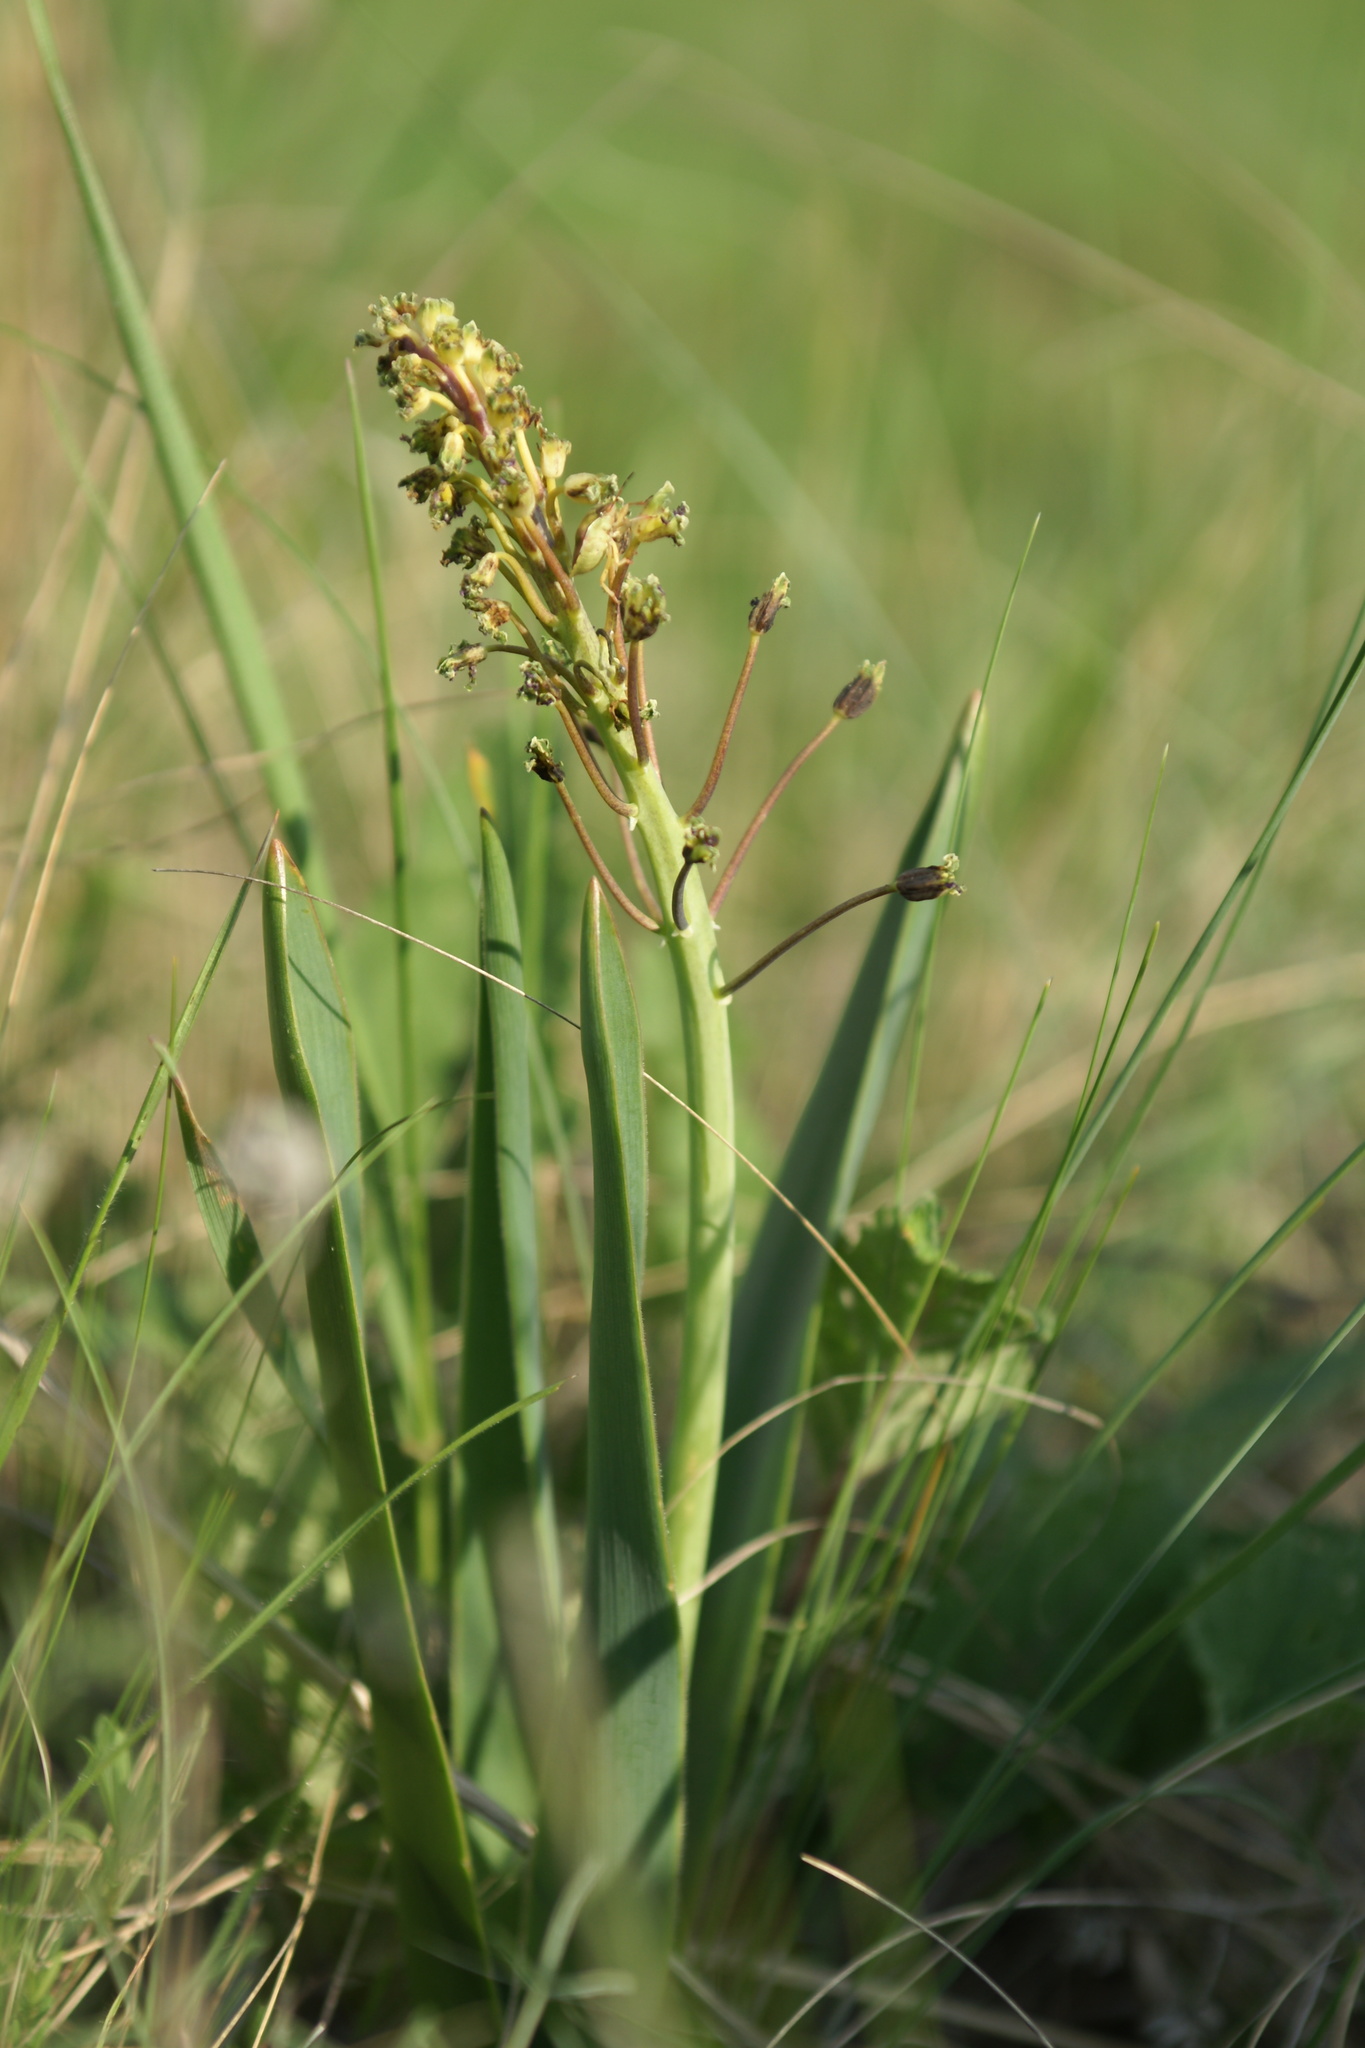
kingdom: Plantae
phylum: Tracheophyta
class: Liliopsida
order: Asparagales
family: Asparagaceae
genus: Bellevalia
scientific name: Bellevalia speciosa
